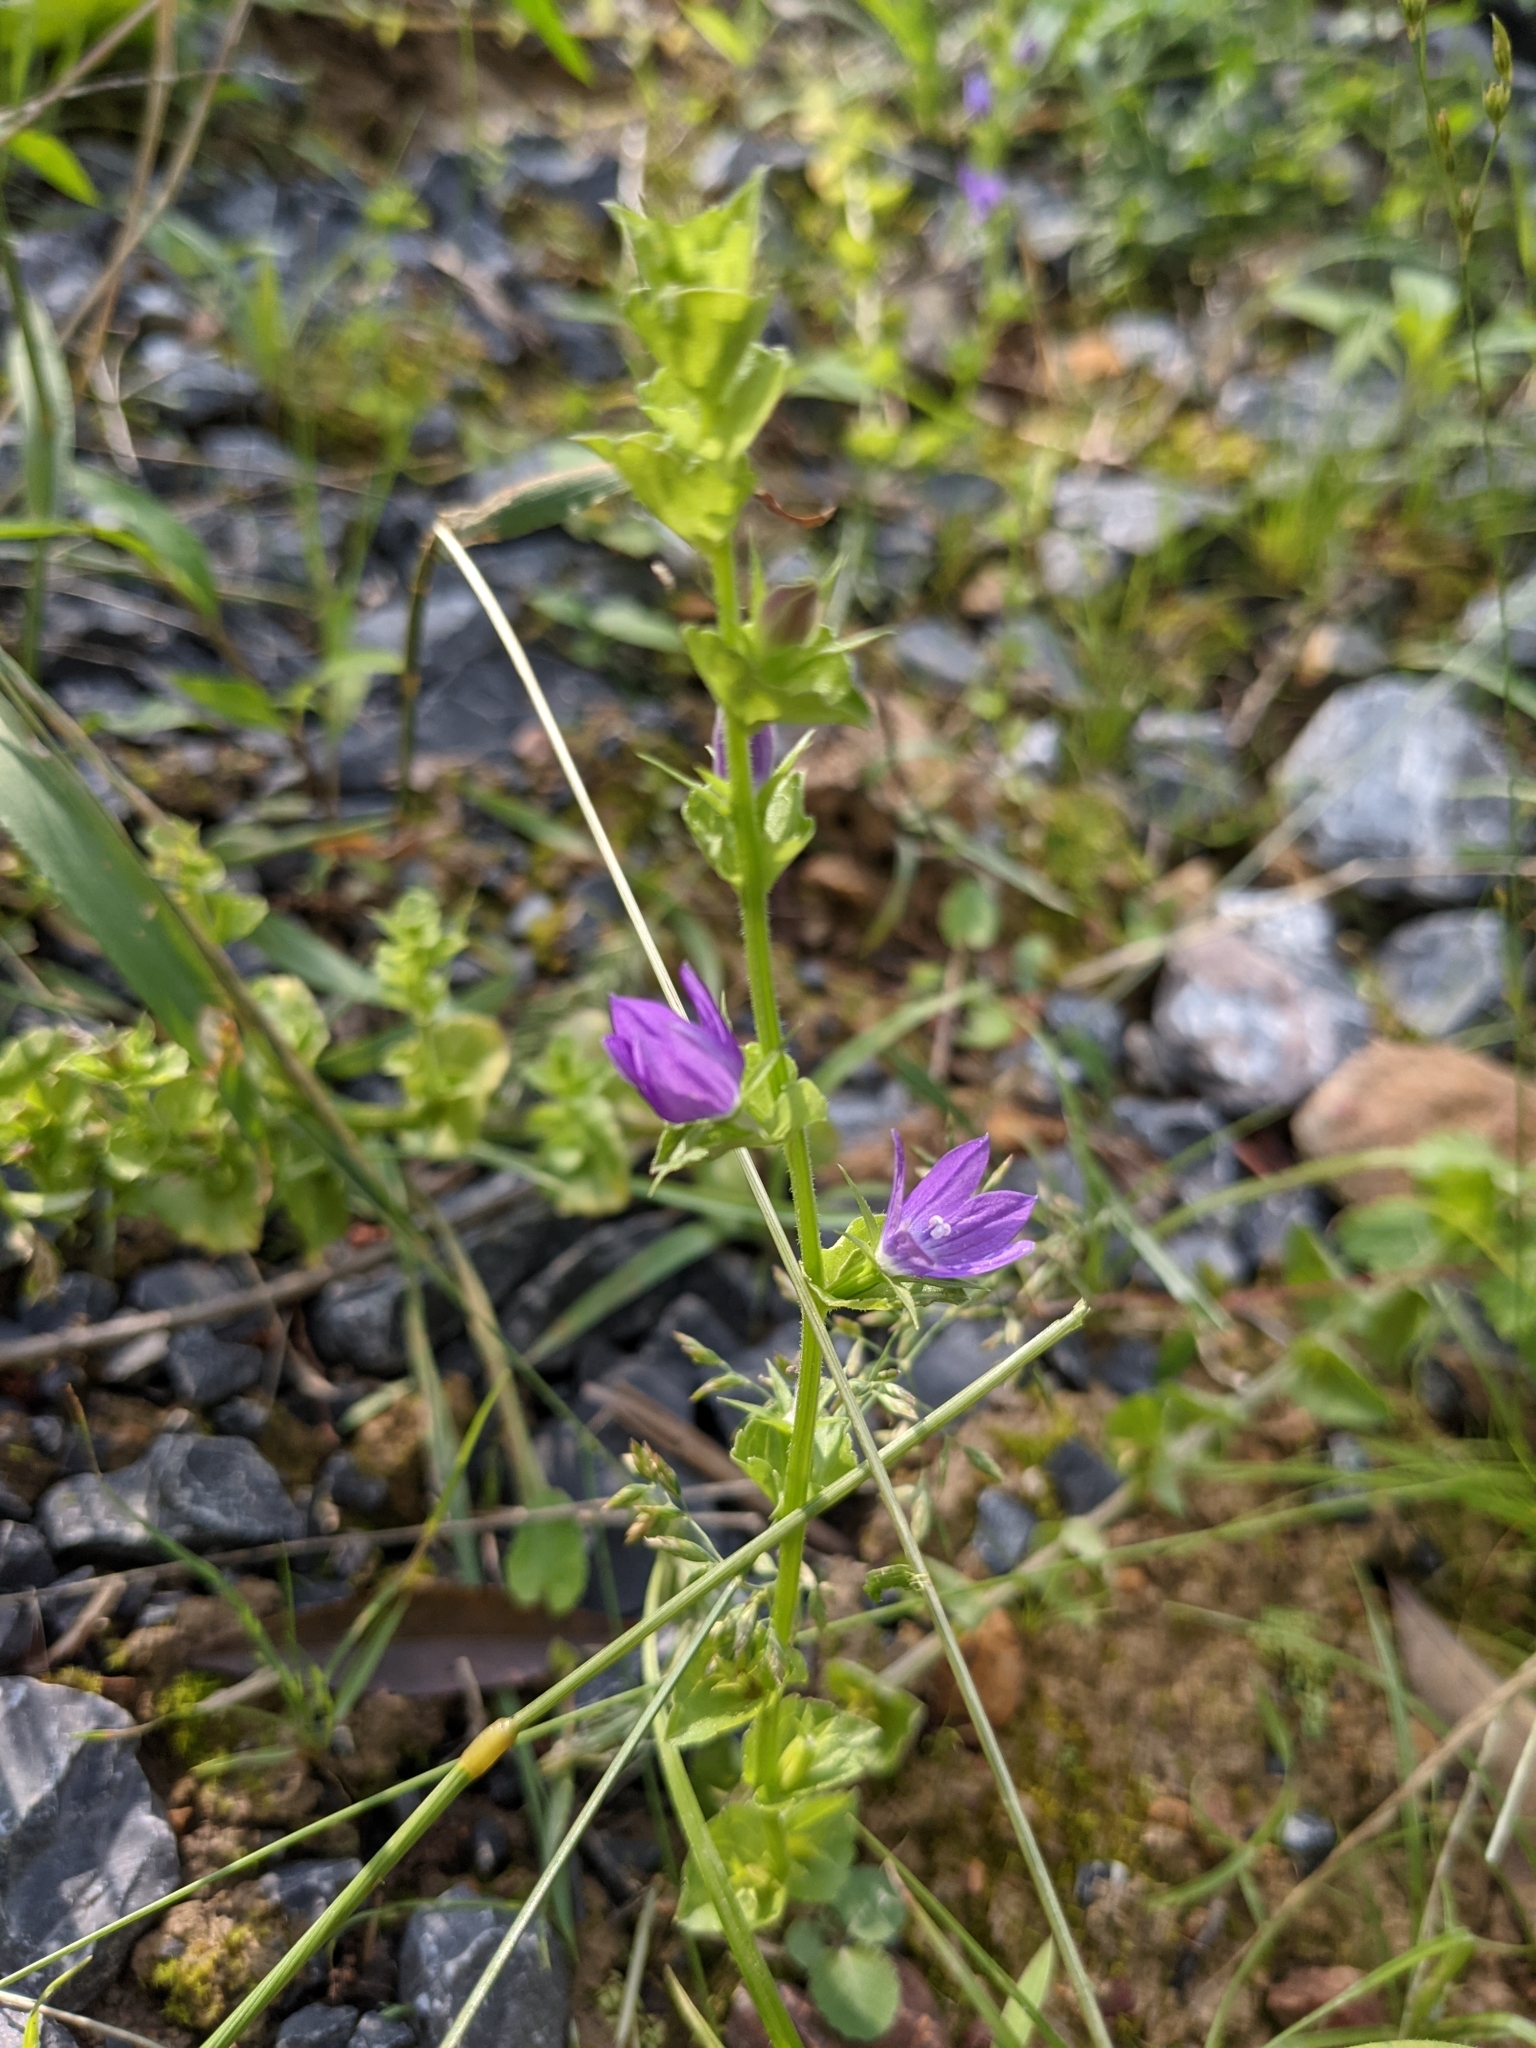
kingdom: Plantae
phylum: Tracheophyta
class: Magnoliopsida
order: Asterales
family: Campanulaceae
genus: Triodanis
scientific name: Triodanis perfoliata
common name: Clasping venus' looking-glass
